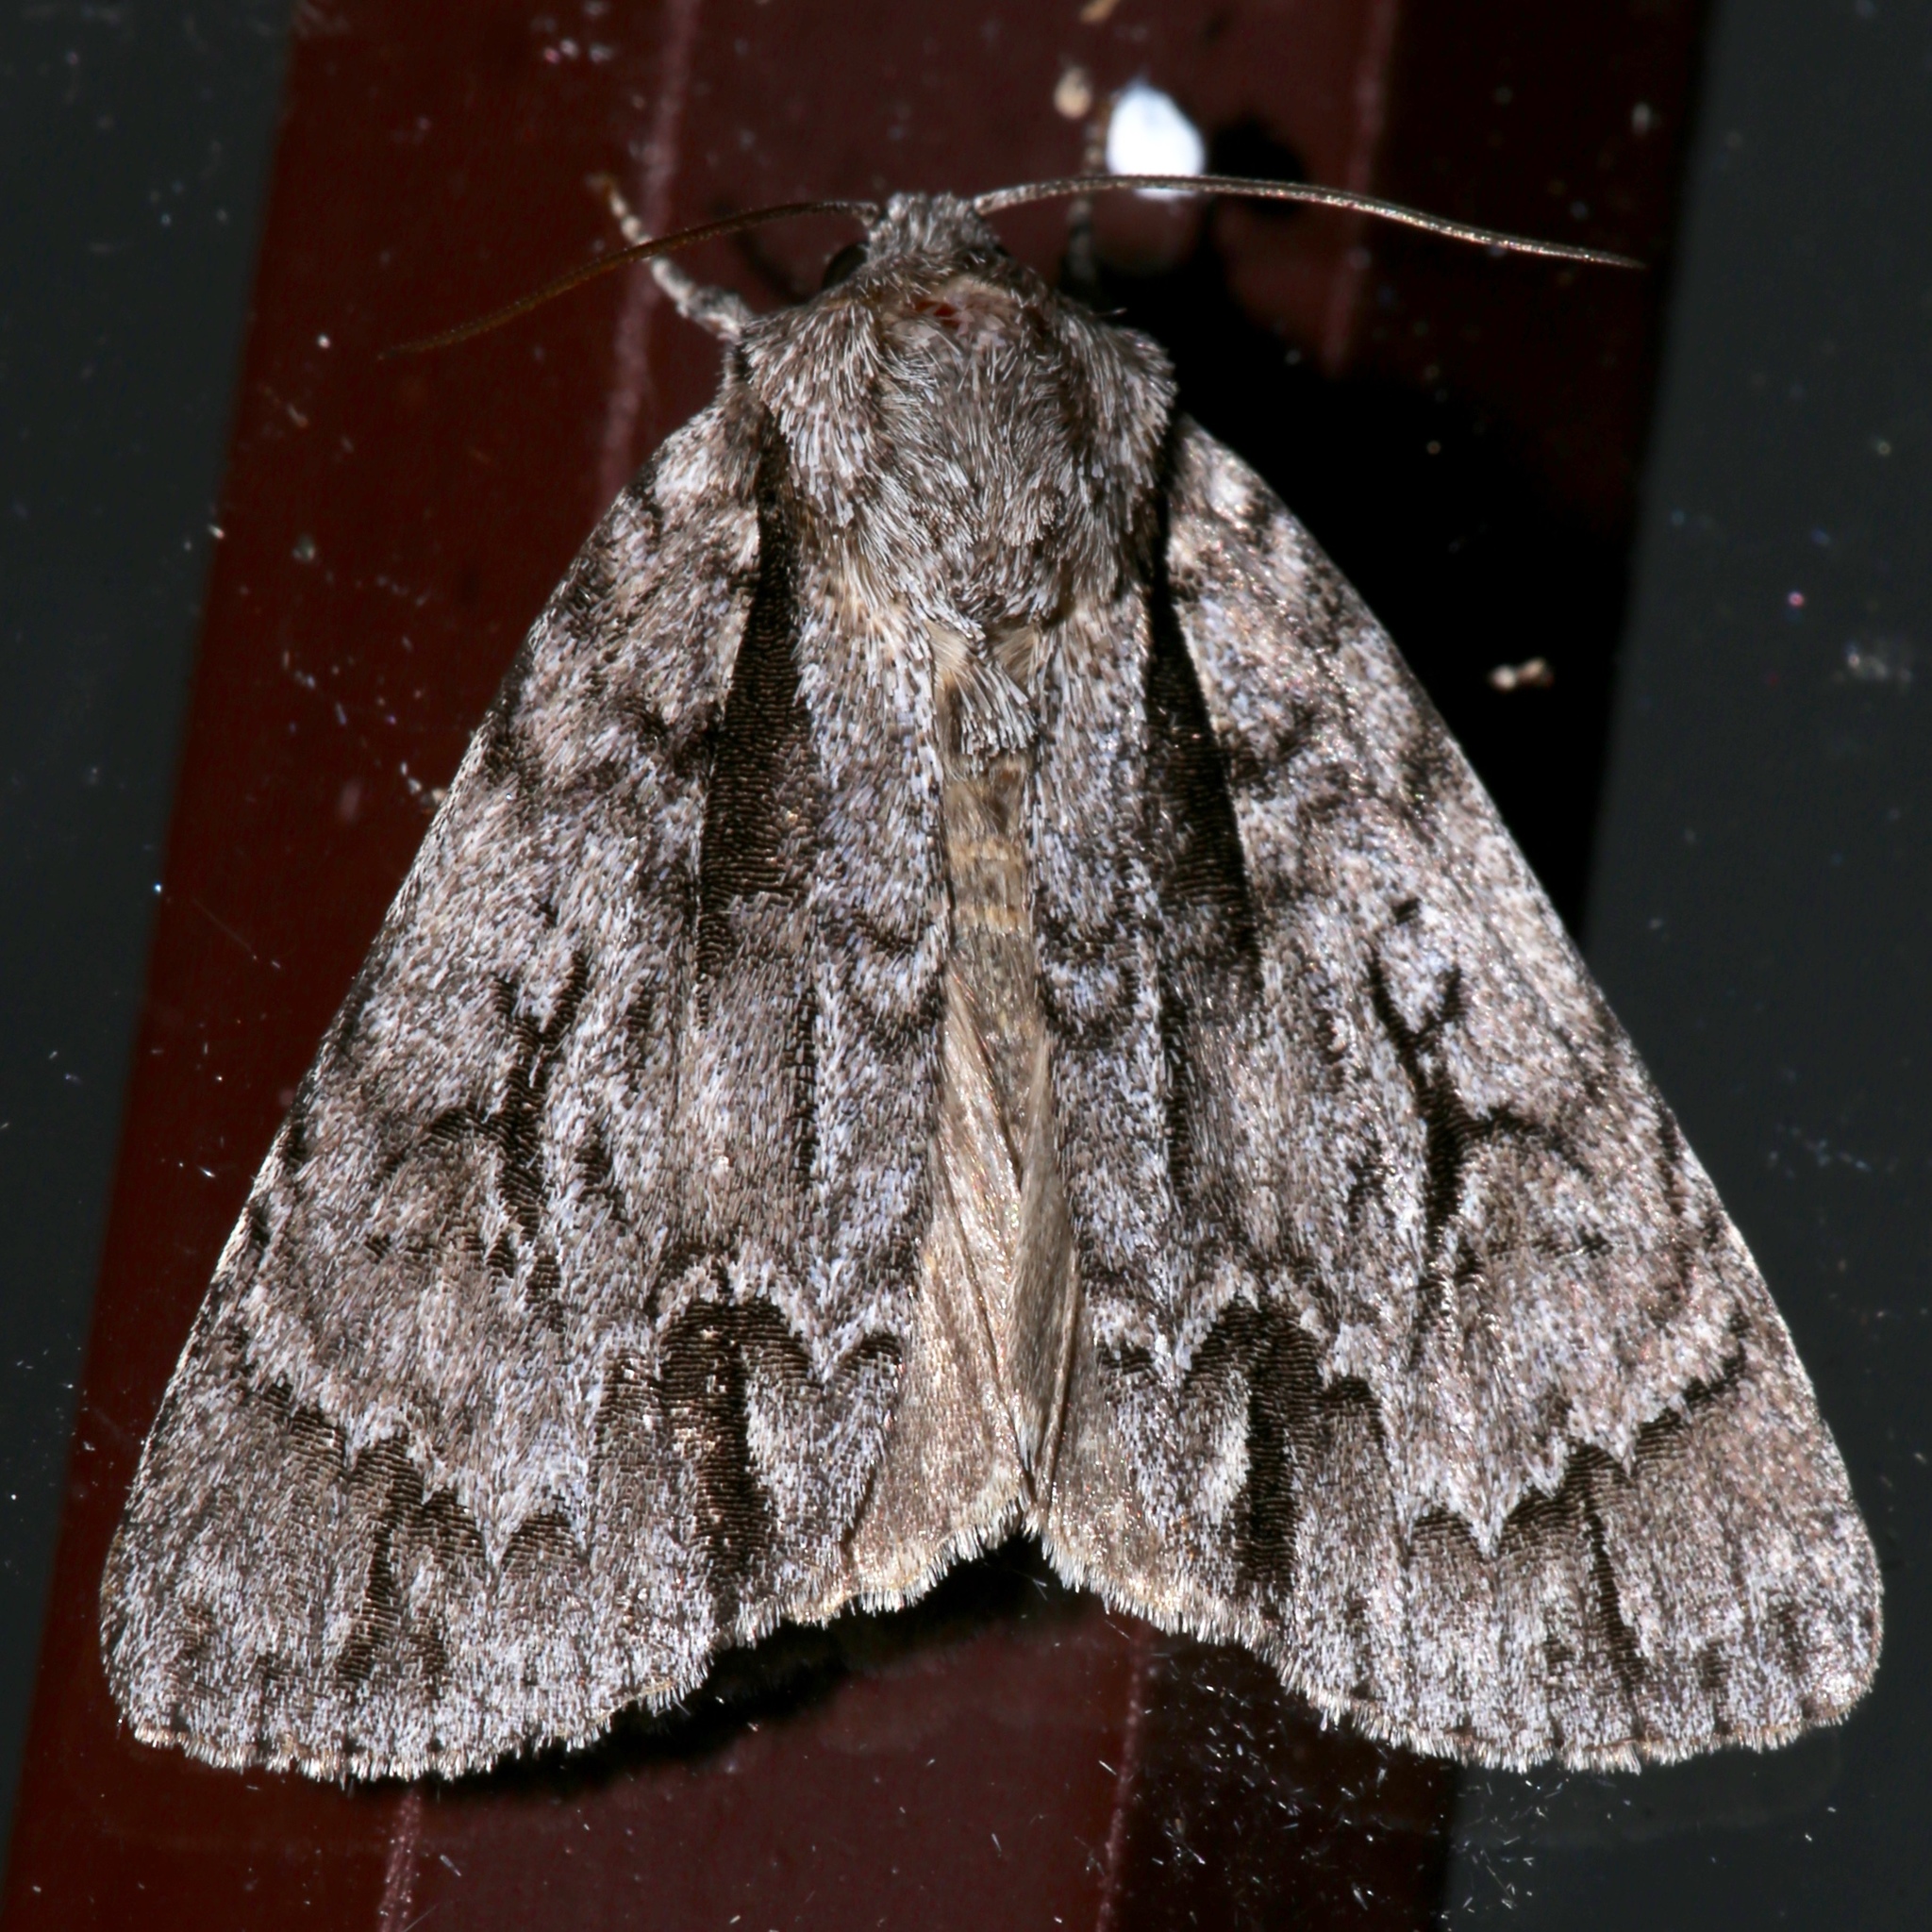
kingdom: Animalia
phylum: Arthropoda
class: Insecta
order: Lepidoptera
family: Noctuidae
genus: Acronicta
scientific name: Acronicta hasta
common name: Cherry dagger
